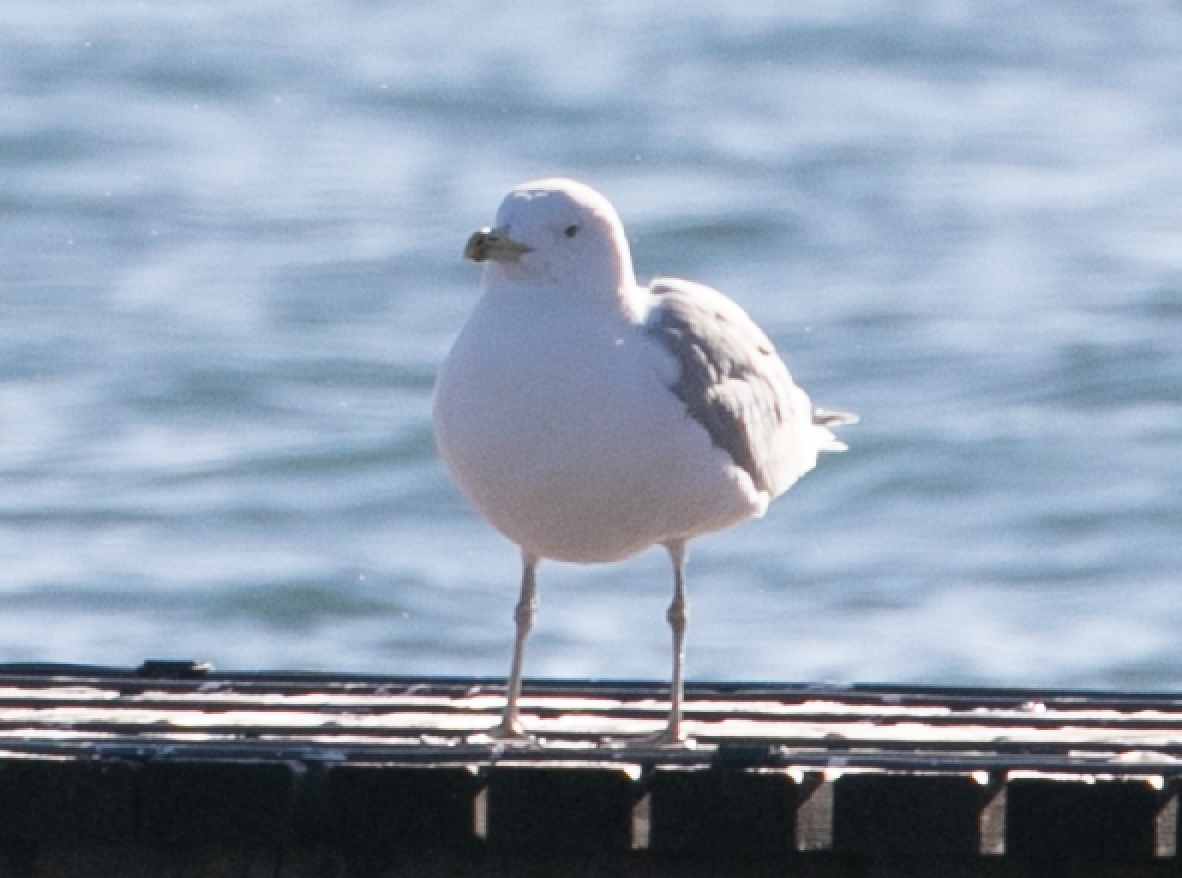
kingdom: Animalia
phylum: Chordata
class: Aves
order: Charadriiformes
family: Laridae
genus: Larus
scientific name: Larus cachinnans
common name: Caspian gull
